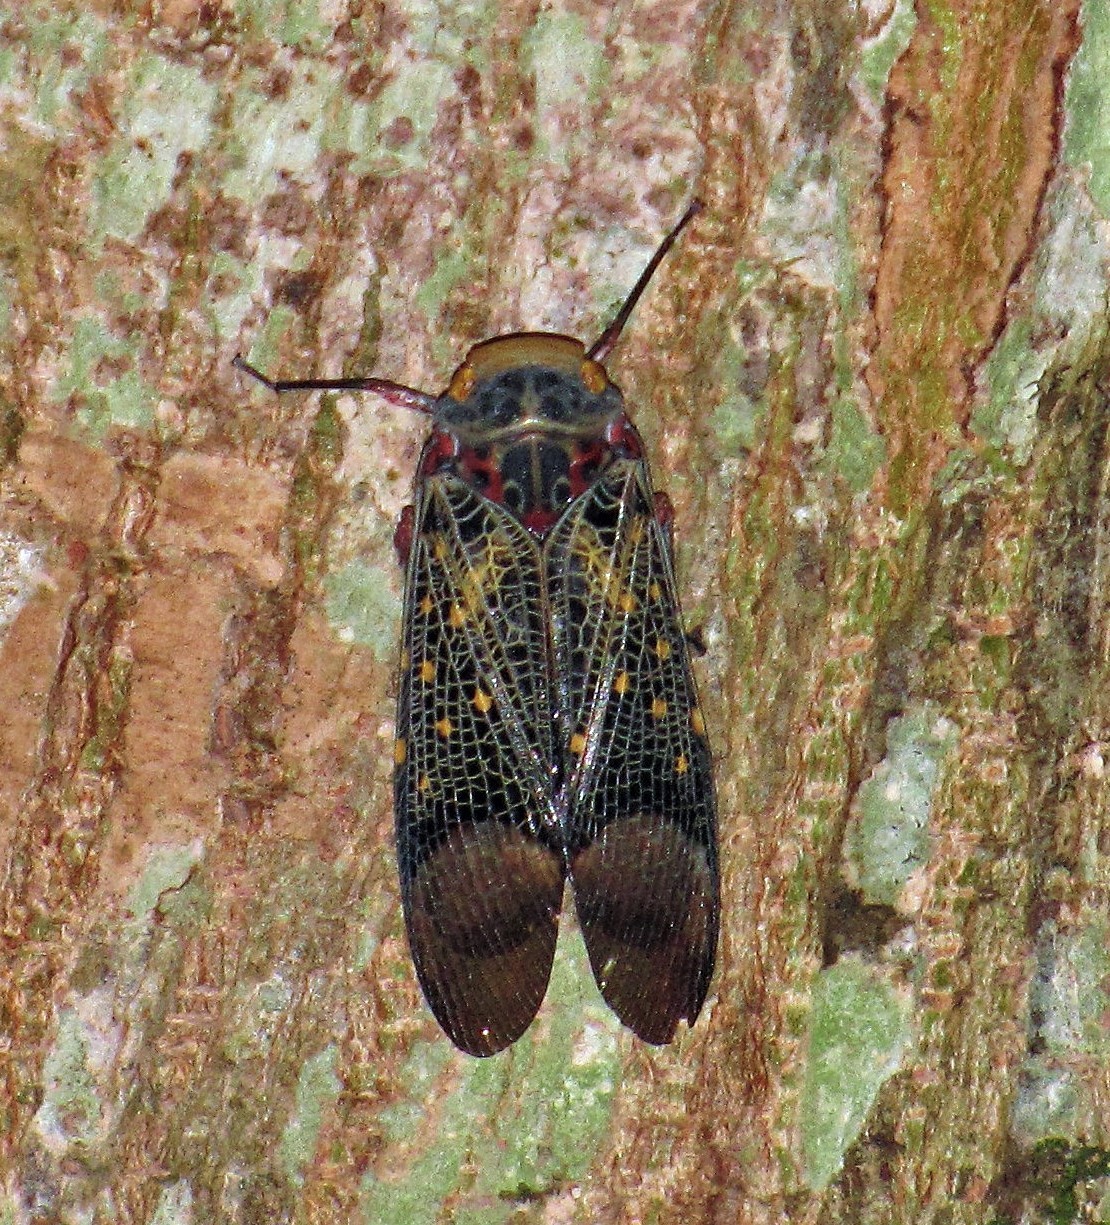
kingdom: Animalia
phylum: Arthropoda
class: Insecta
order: Hemiptera
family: Fulgoridae
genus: Scaralis
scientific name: Scaralis picta
